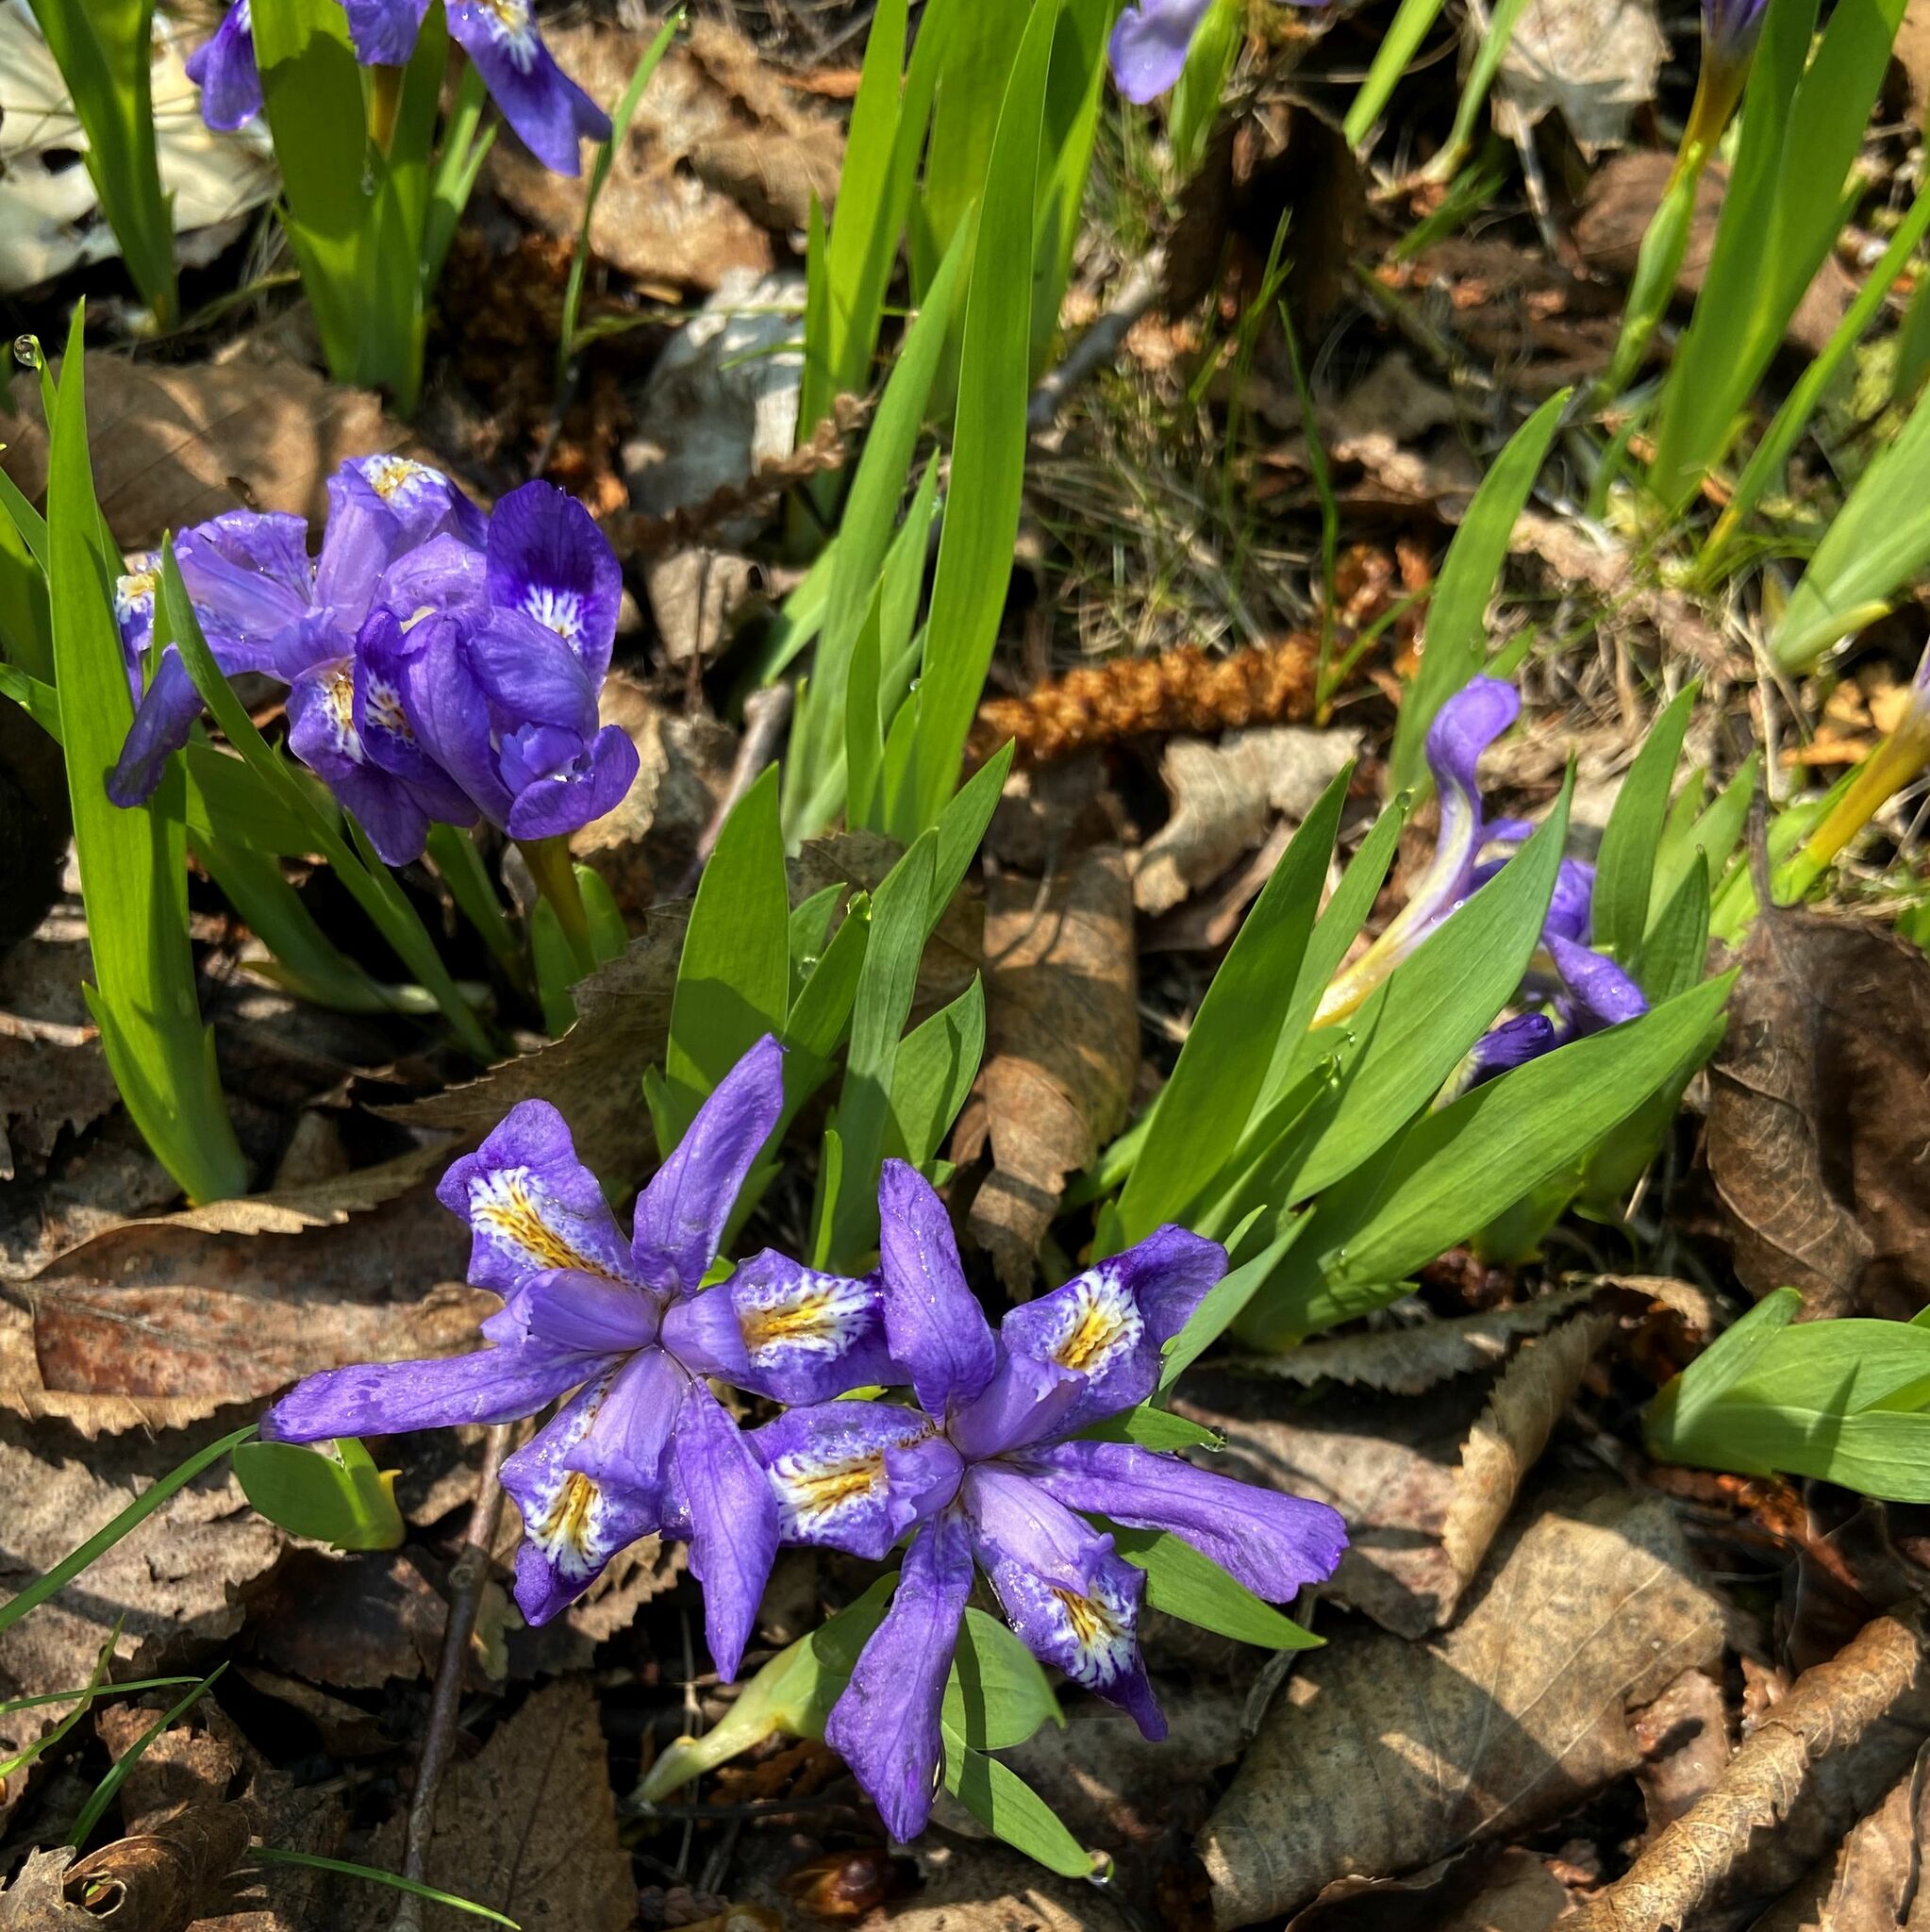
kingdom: Plantae
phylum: Tracheophyta
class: Liliopsida
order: Asparagales
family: Iridaceae
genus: Iris
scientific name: Iris lacustris
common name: Dwarf lake iris
